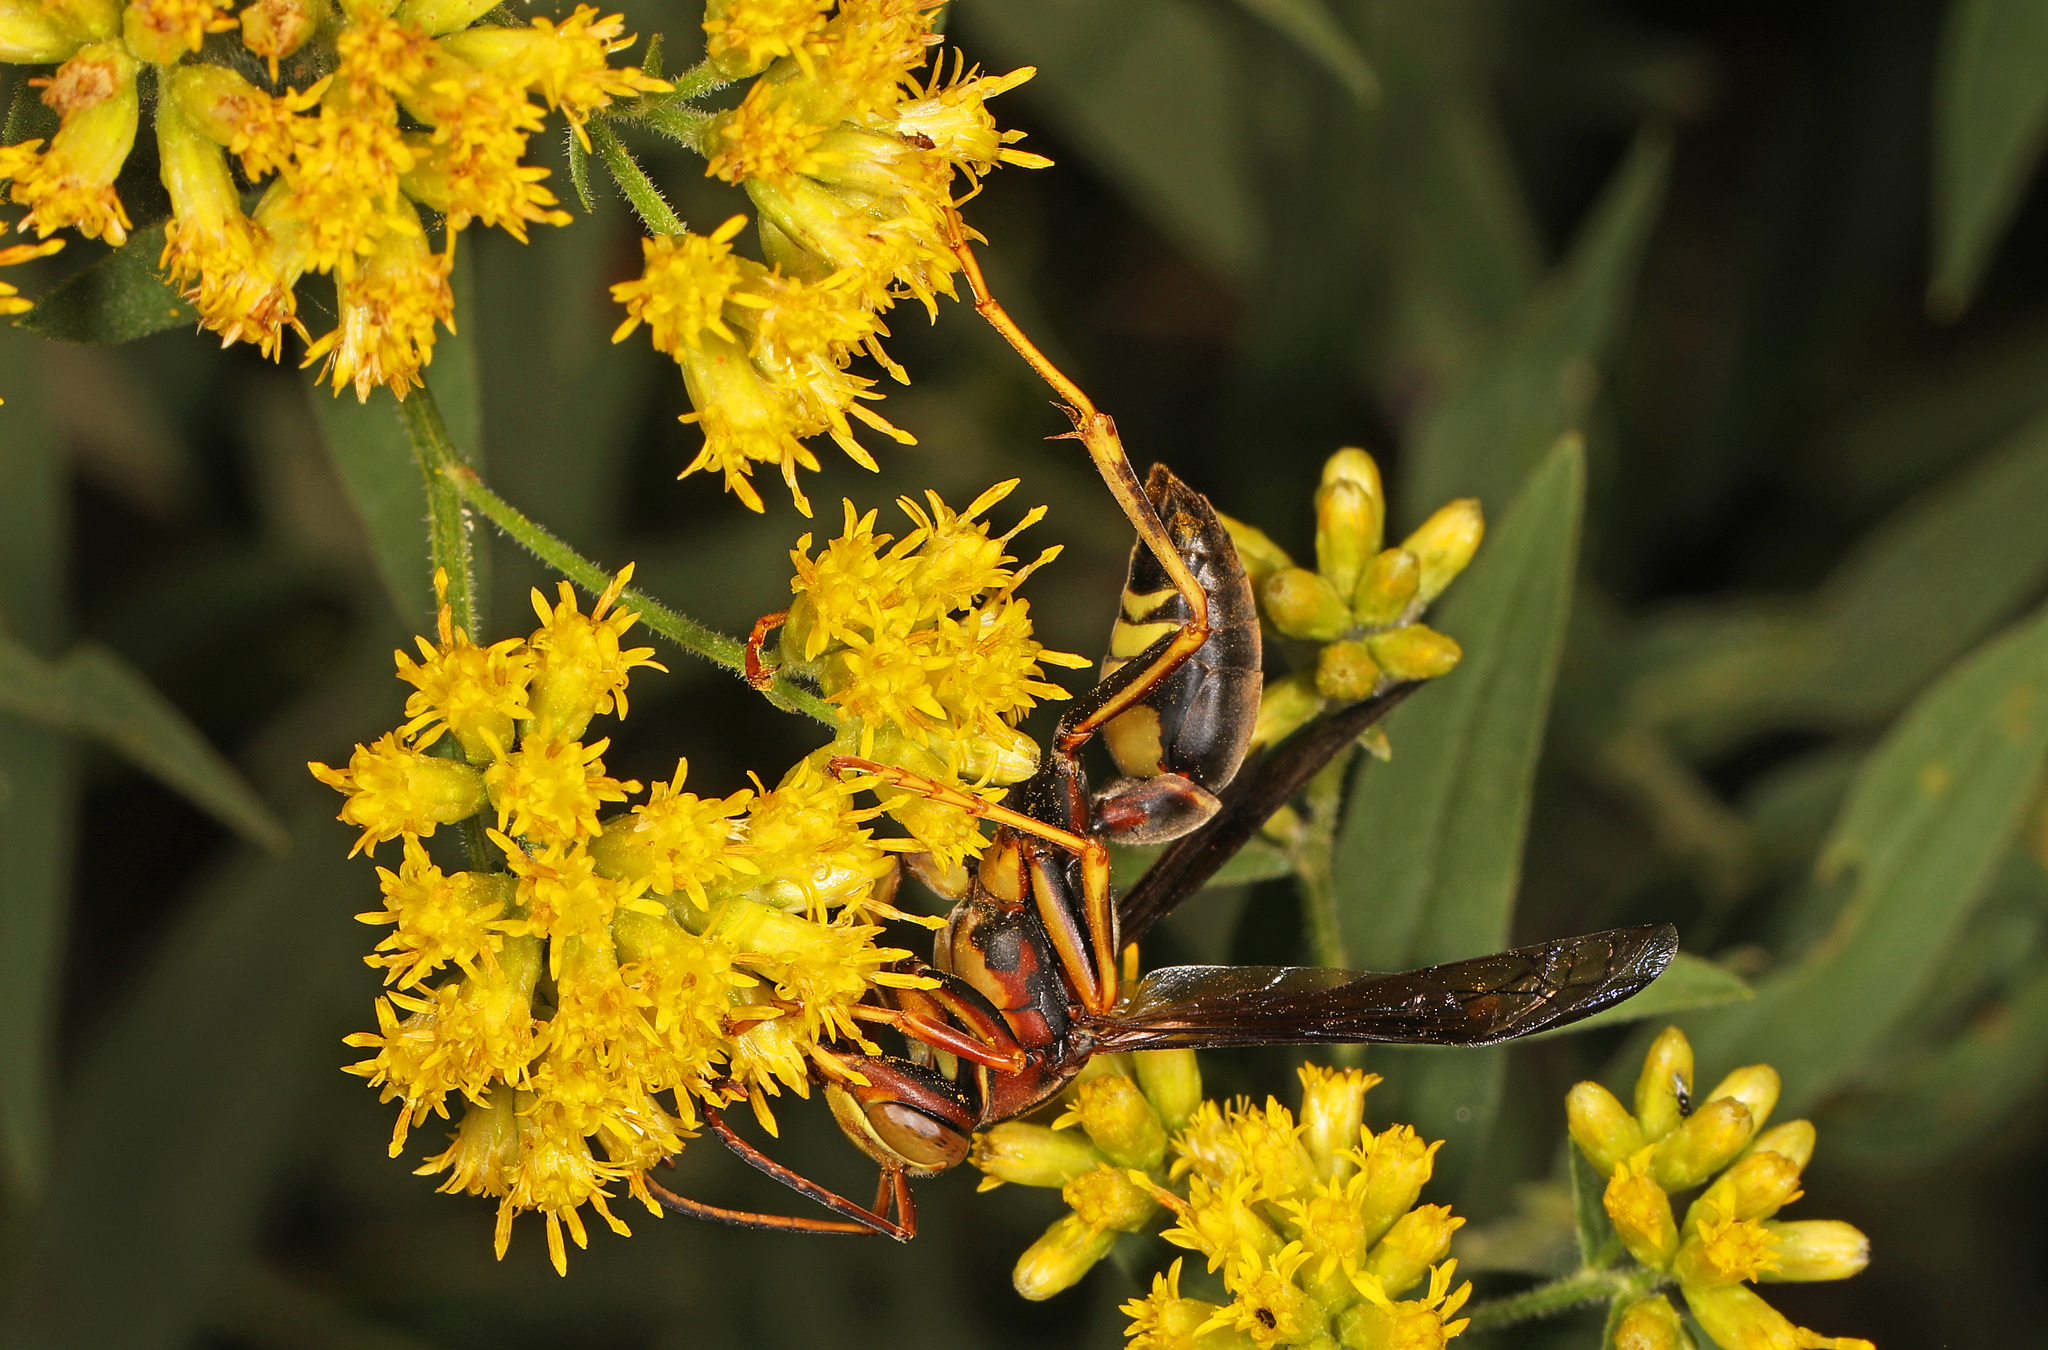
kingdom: Animalia
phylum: Arthropoda
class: Insecta
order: Hymenoptera
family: Eumenidae
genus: Polistes
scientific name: Polistes metricus
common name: Metric paper wasp
